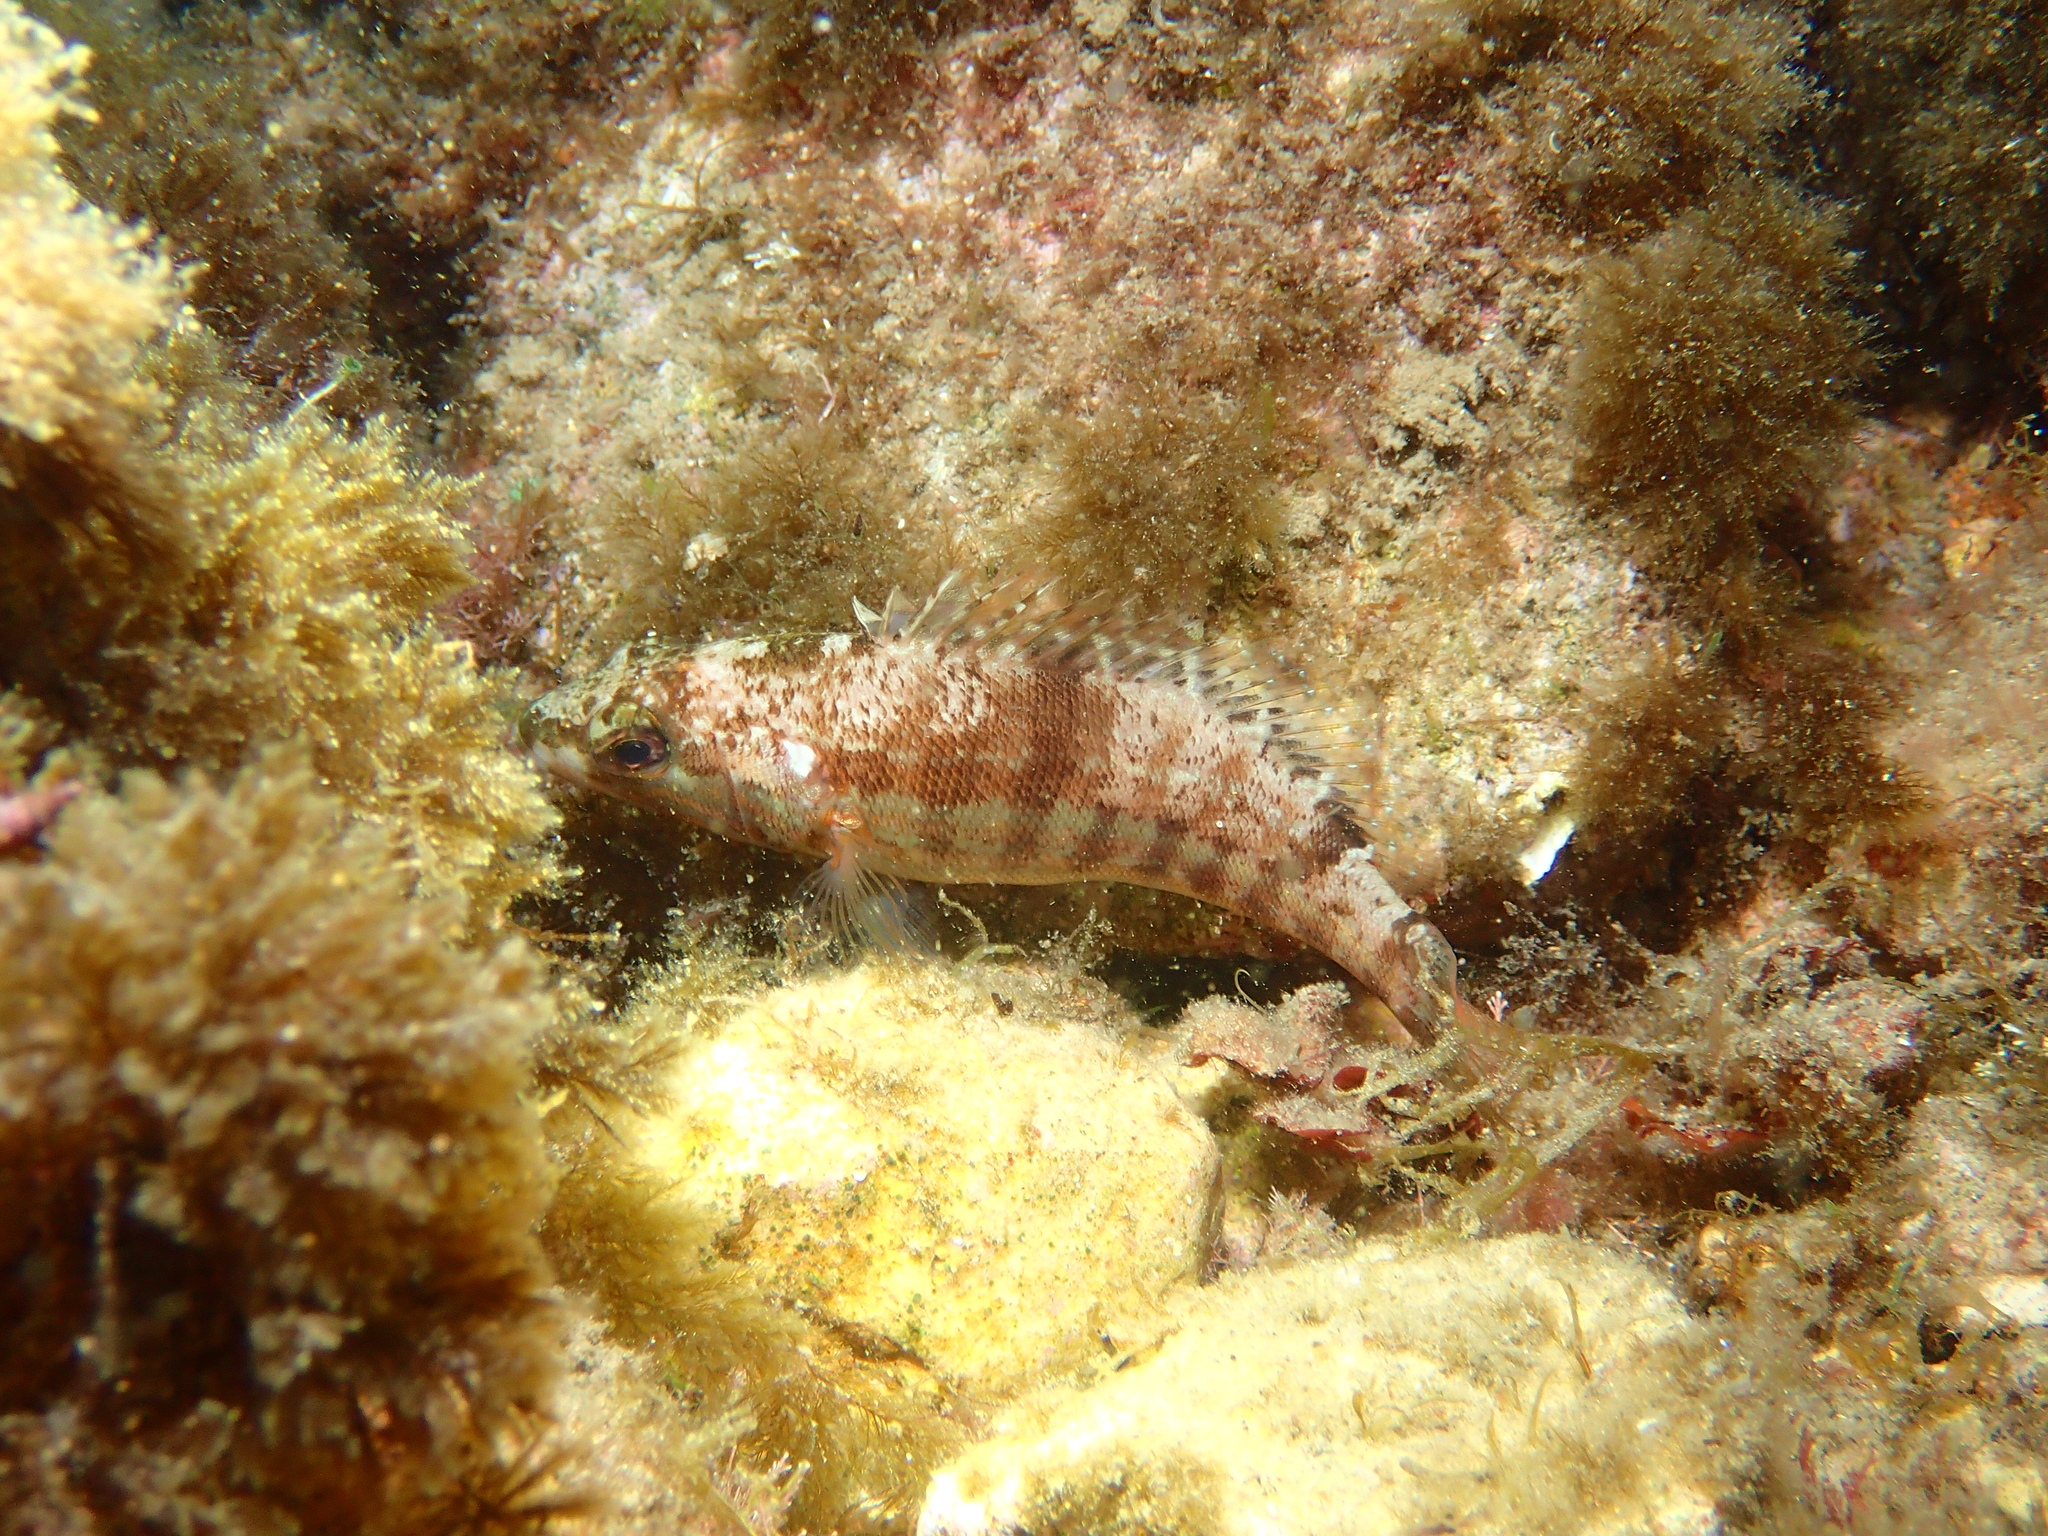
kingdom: Animalia
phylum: Chordata
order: Perciformes
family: Serranidae
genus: Serranus
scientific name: Serranus cabrilla
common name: Comber
